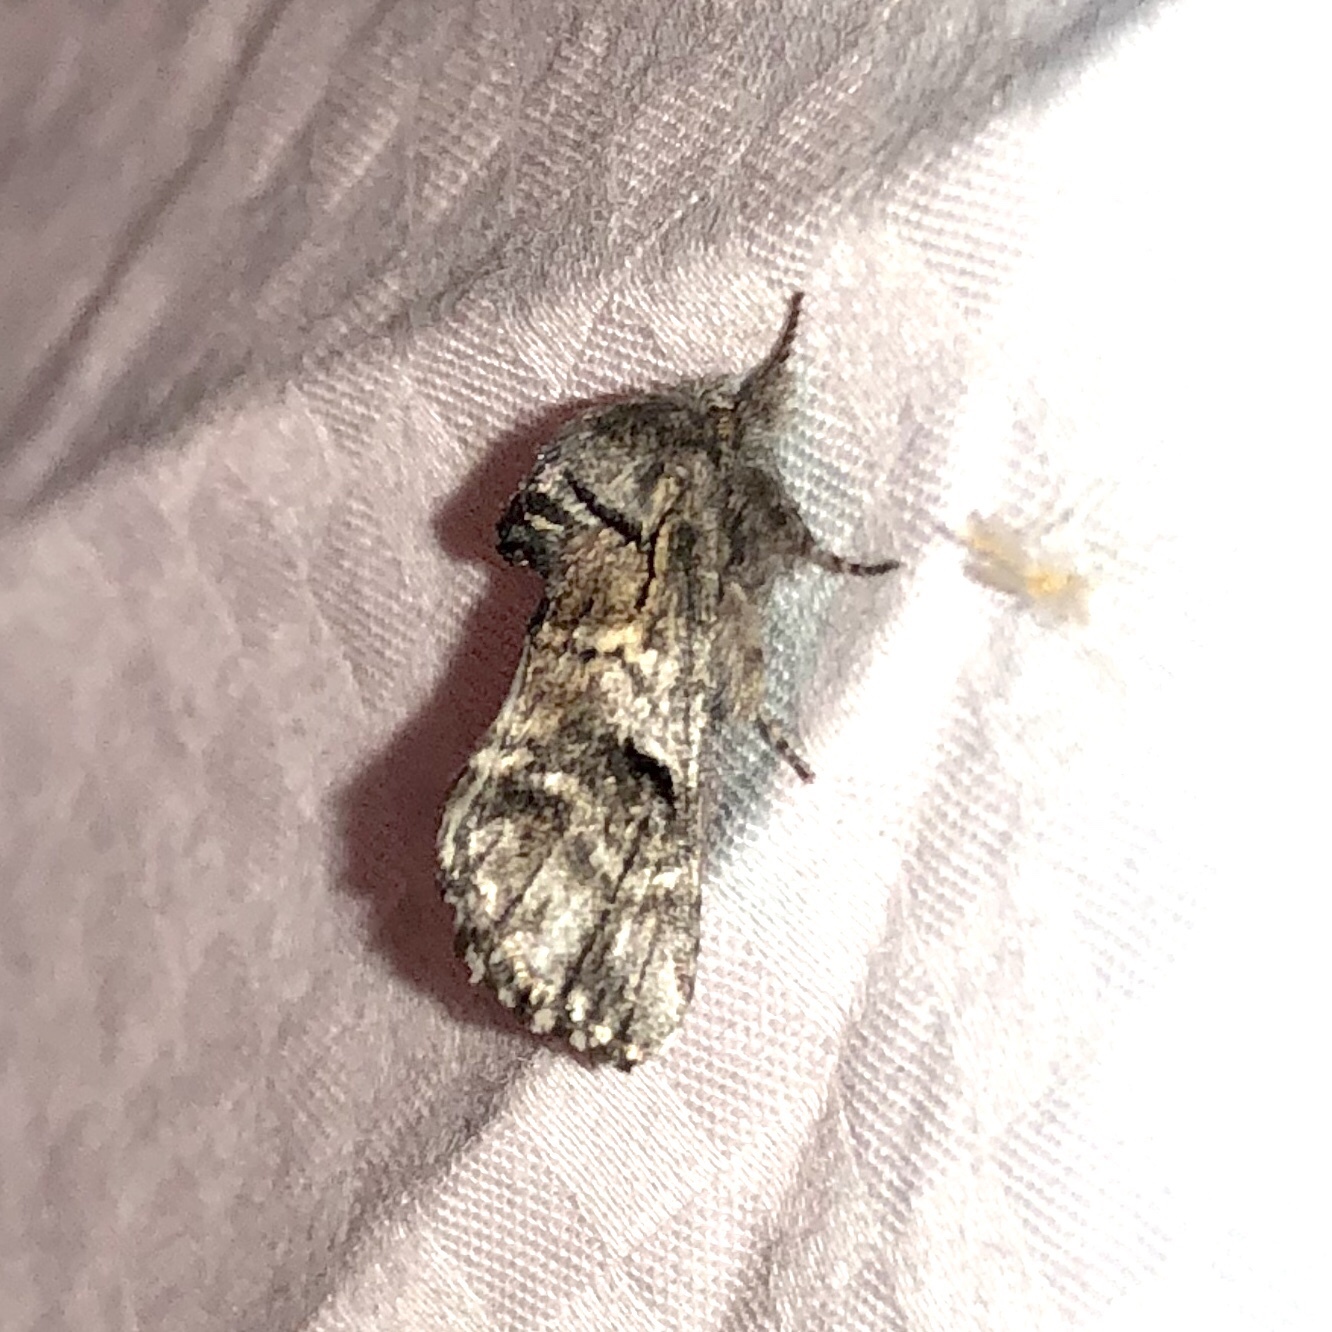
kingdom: Animalia
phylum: Arthropoda
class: Insecta
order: Lepidoptera
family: Notodontidae
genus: Schizura
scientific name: Schizura
